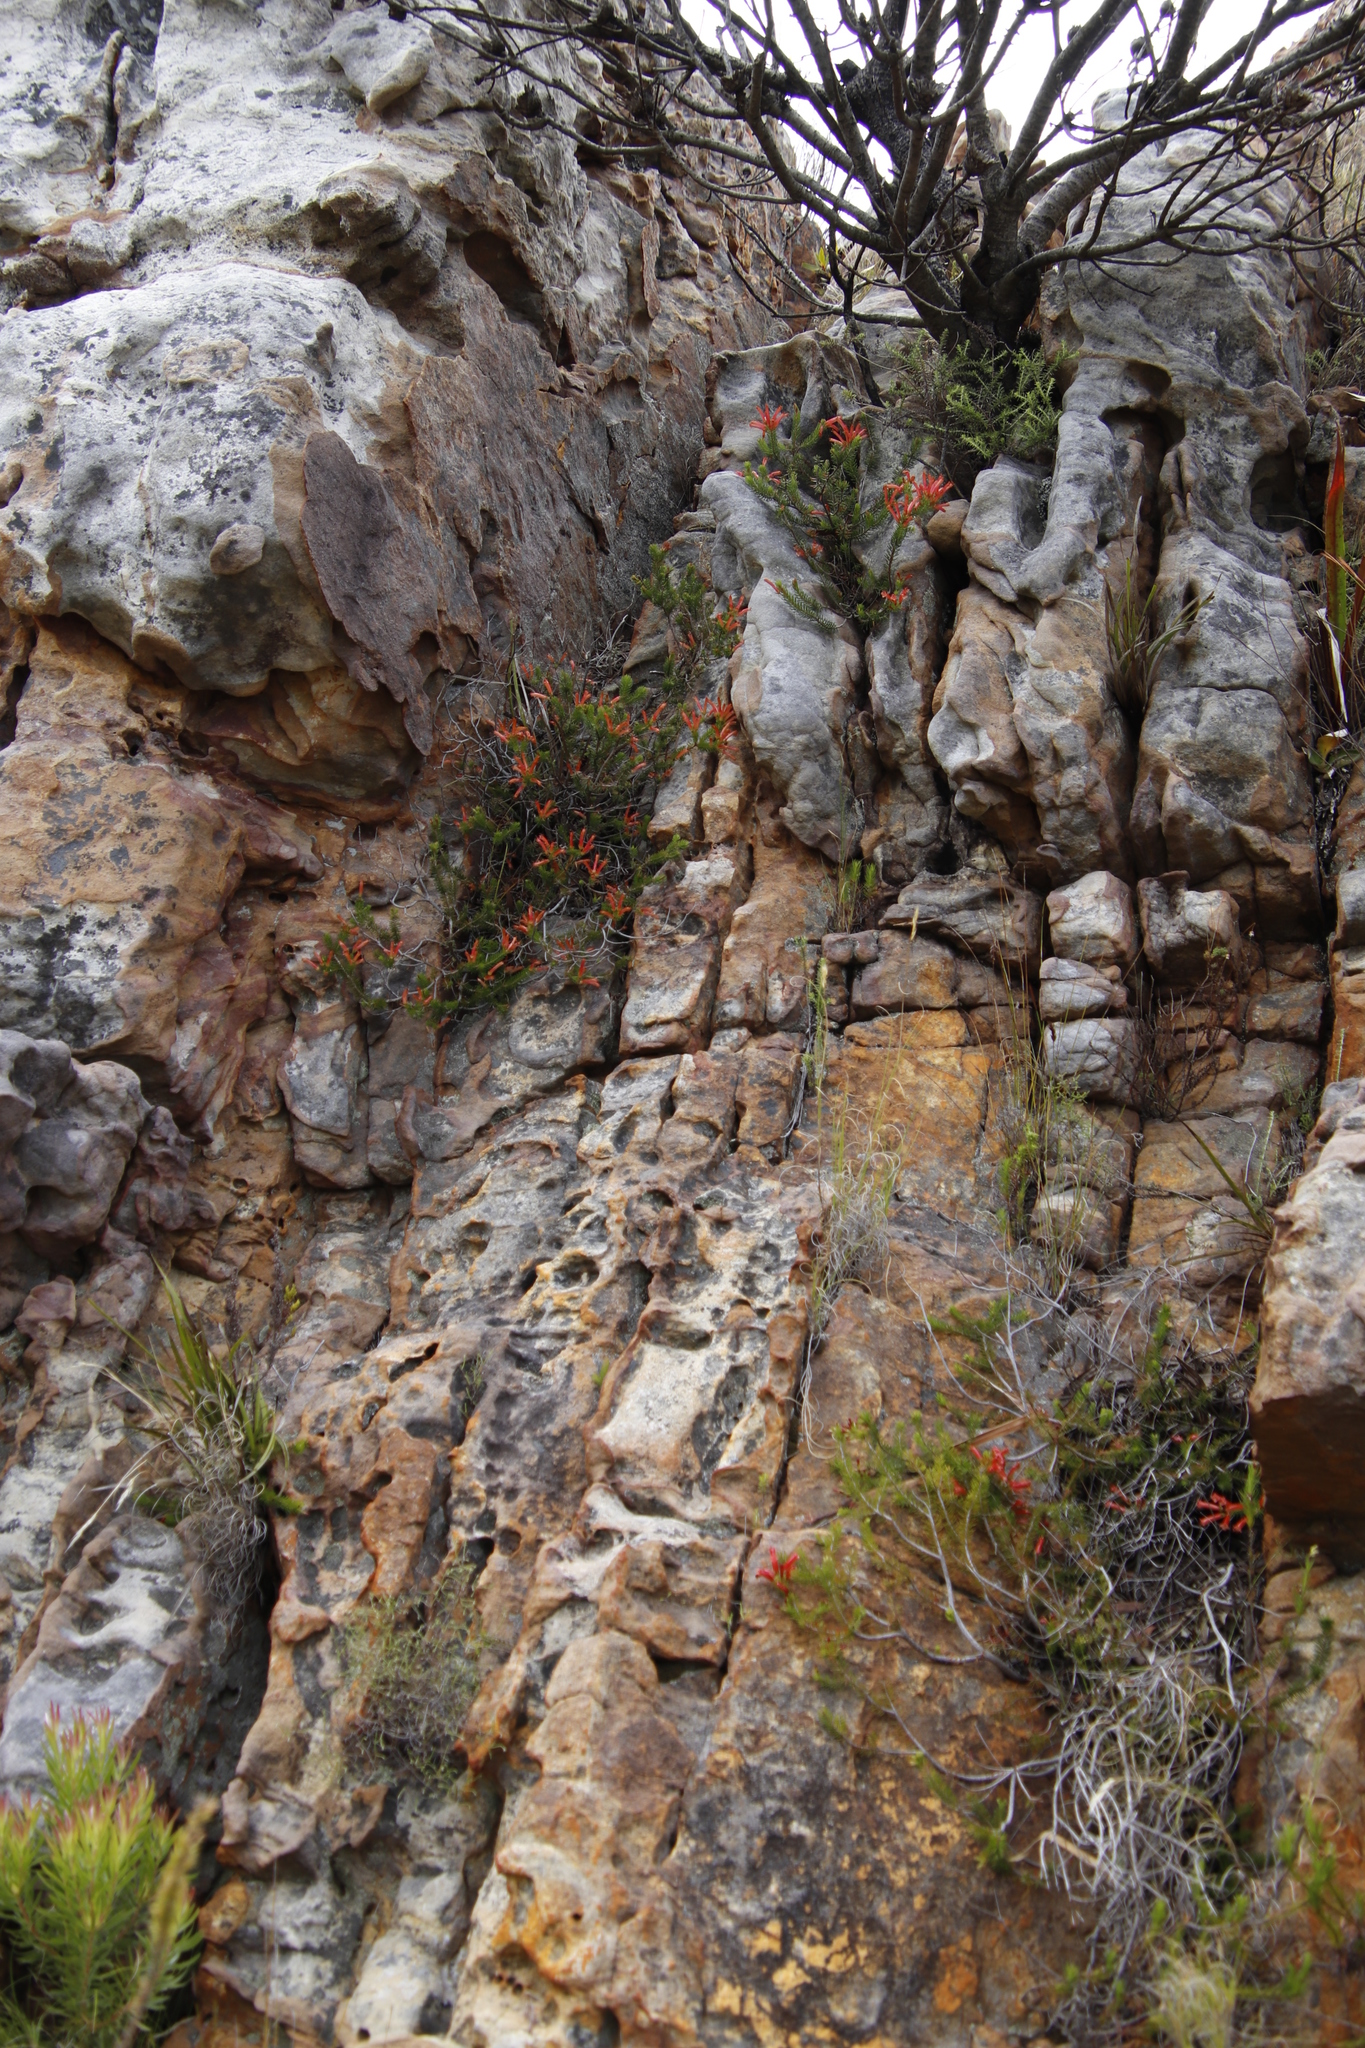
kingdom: Plantae
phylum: Tracheophyta
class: Magnoliopsida
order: Ericales
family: Ericaceae
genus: Erica
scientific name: Erica nevillei
